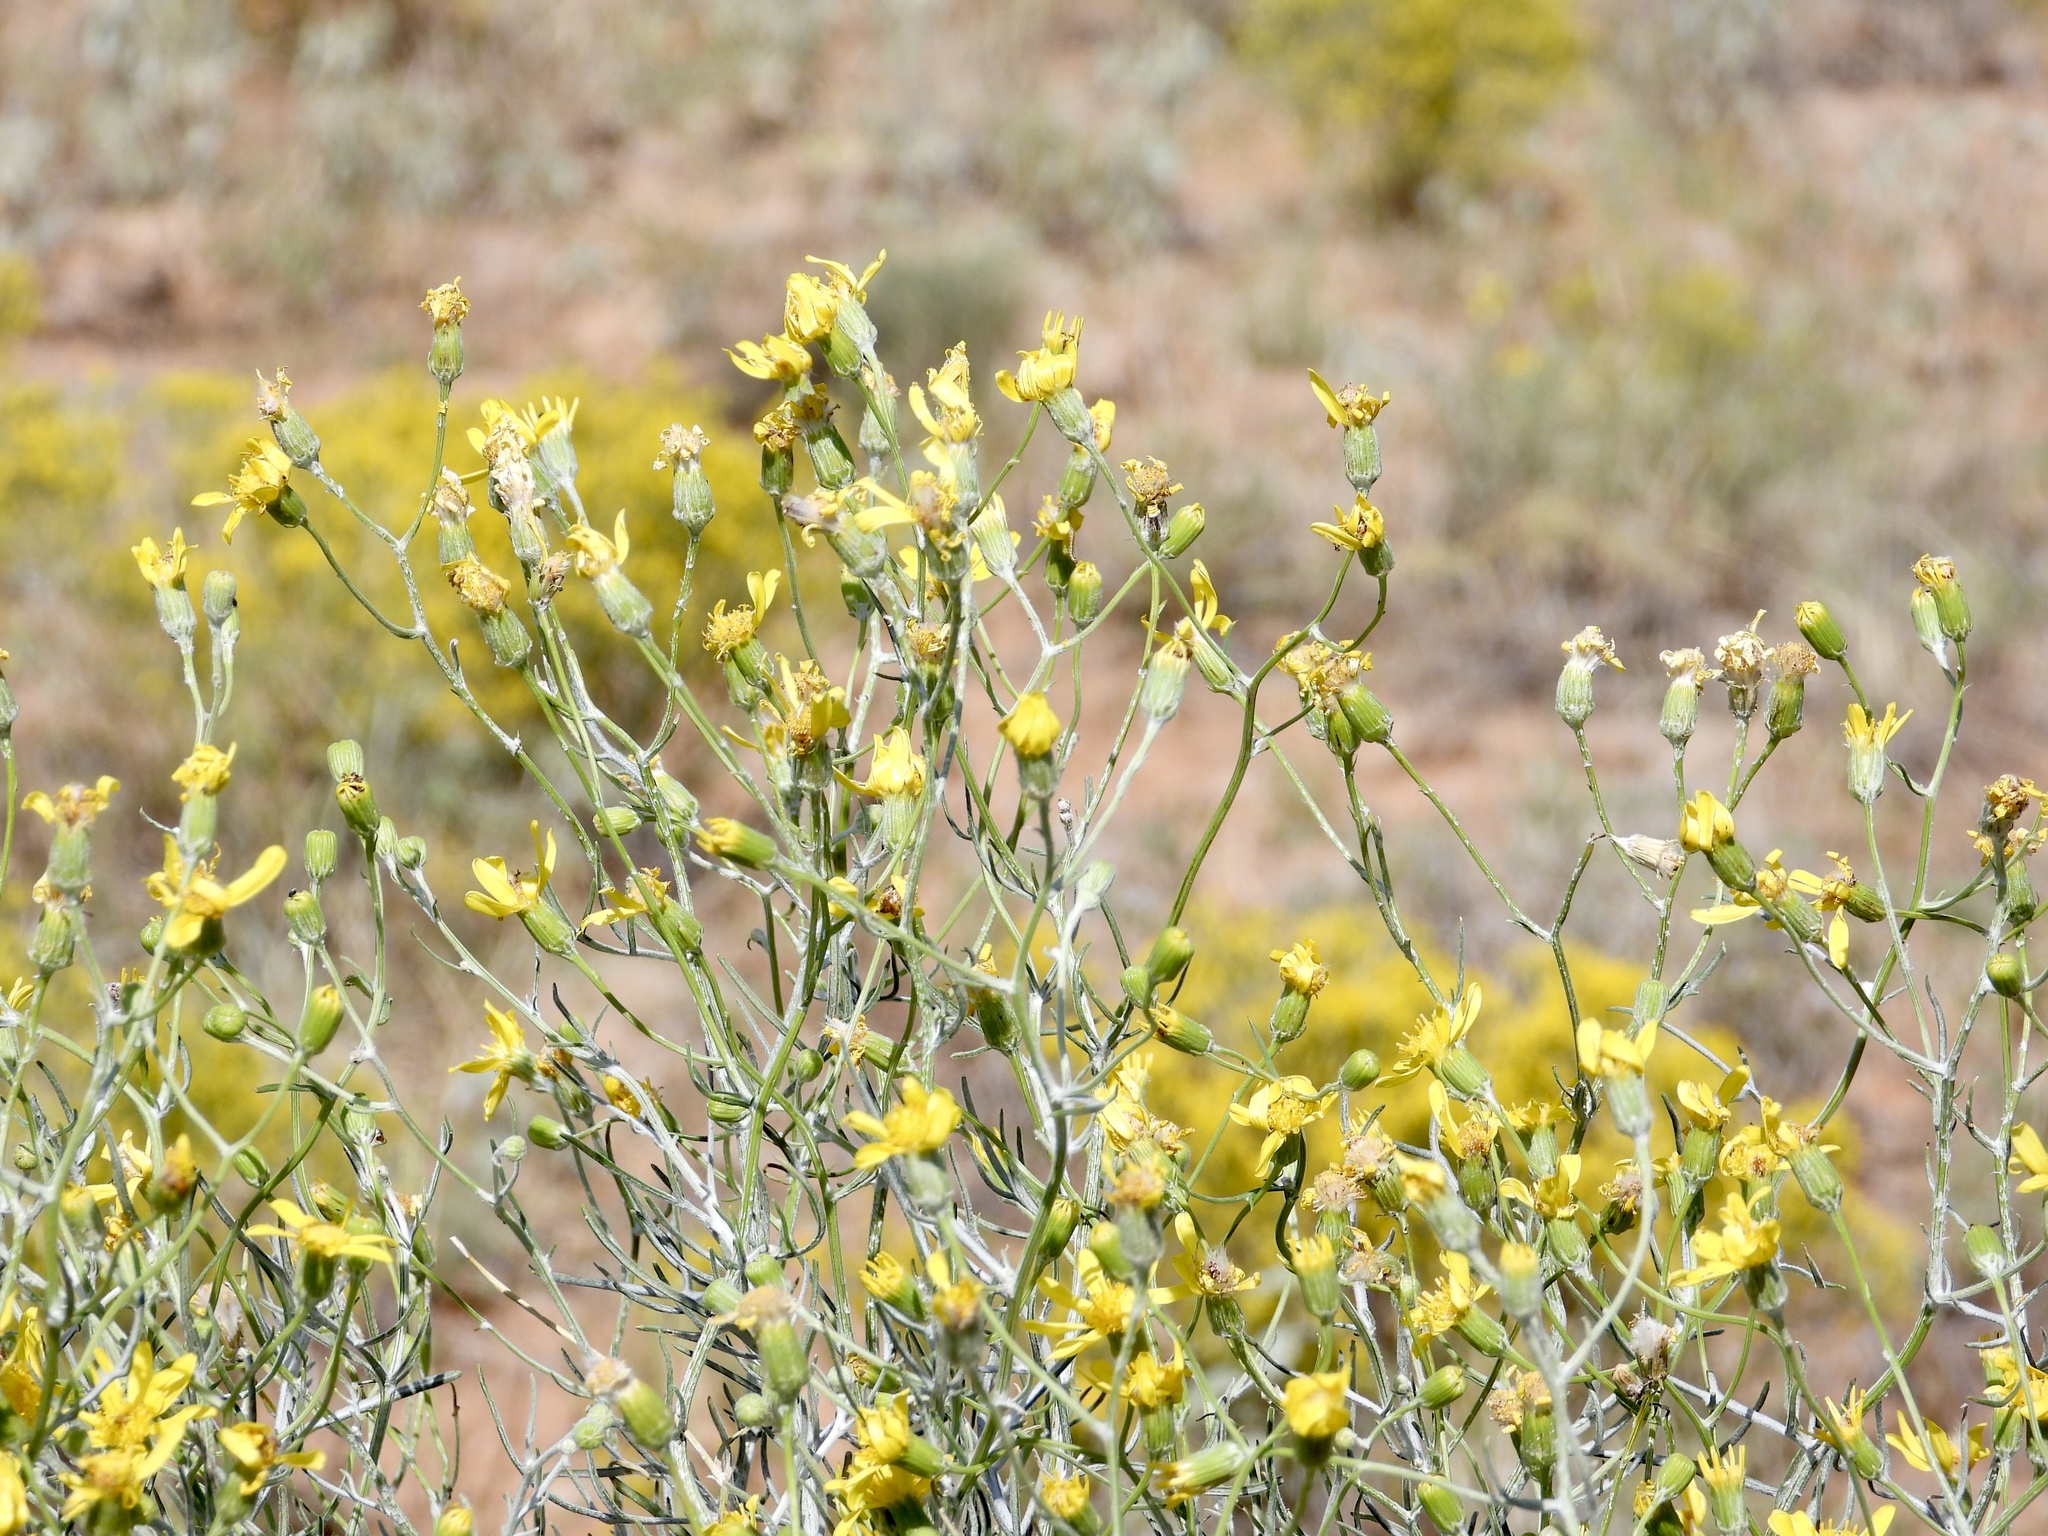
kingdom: Plantae
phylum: Tracheophyta
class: Magnoliopsida
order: Asterales
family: Asteraceae
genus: Senecio
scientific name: Senecio flaccidus
